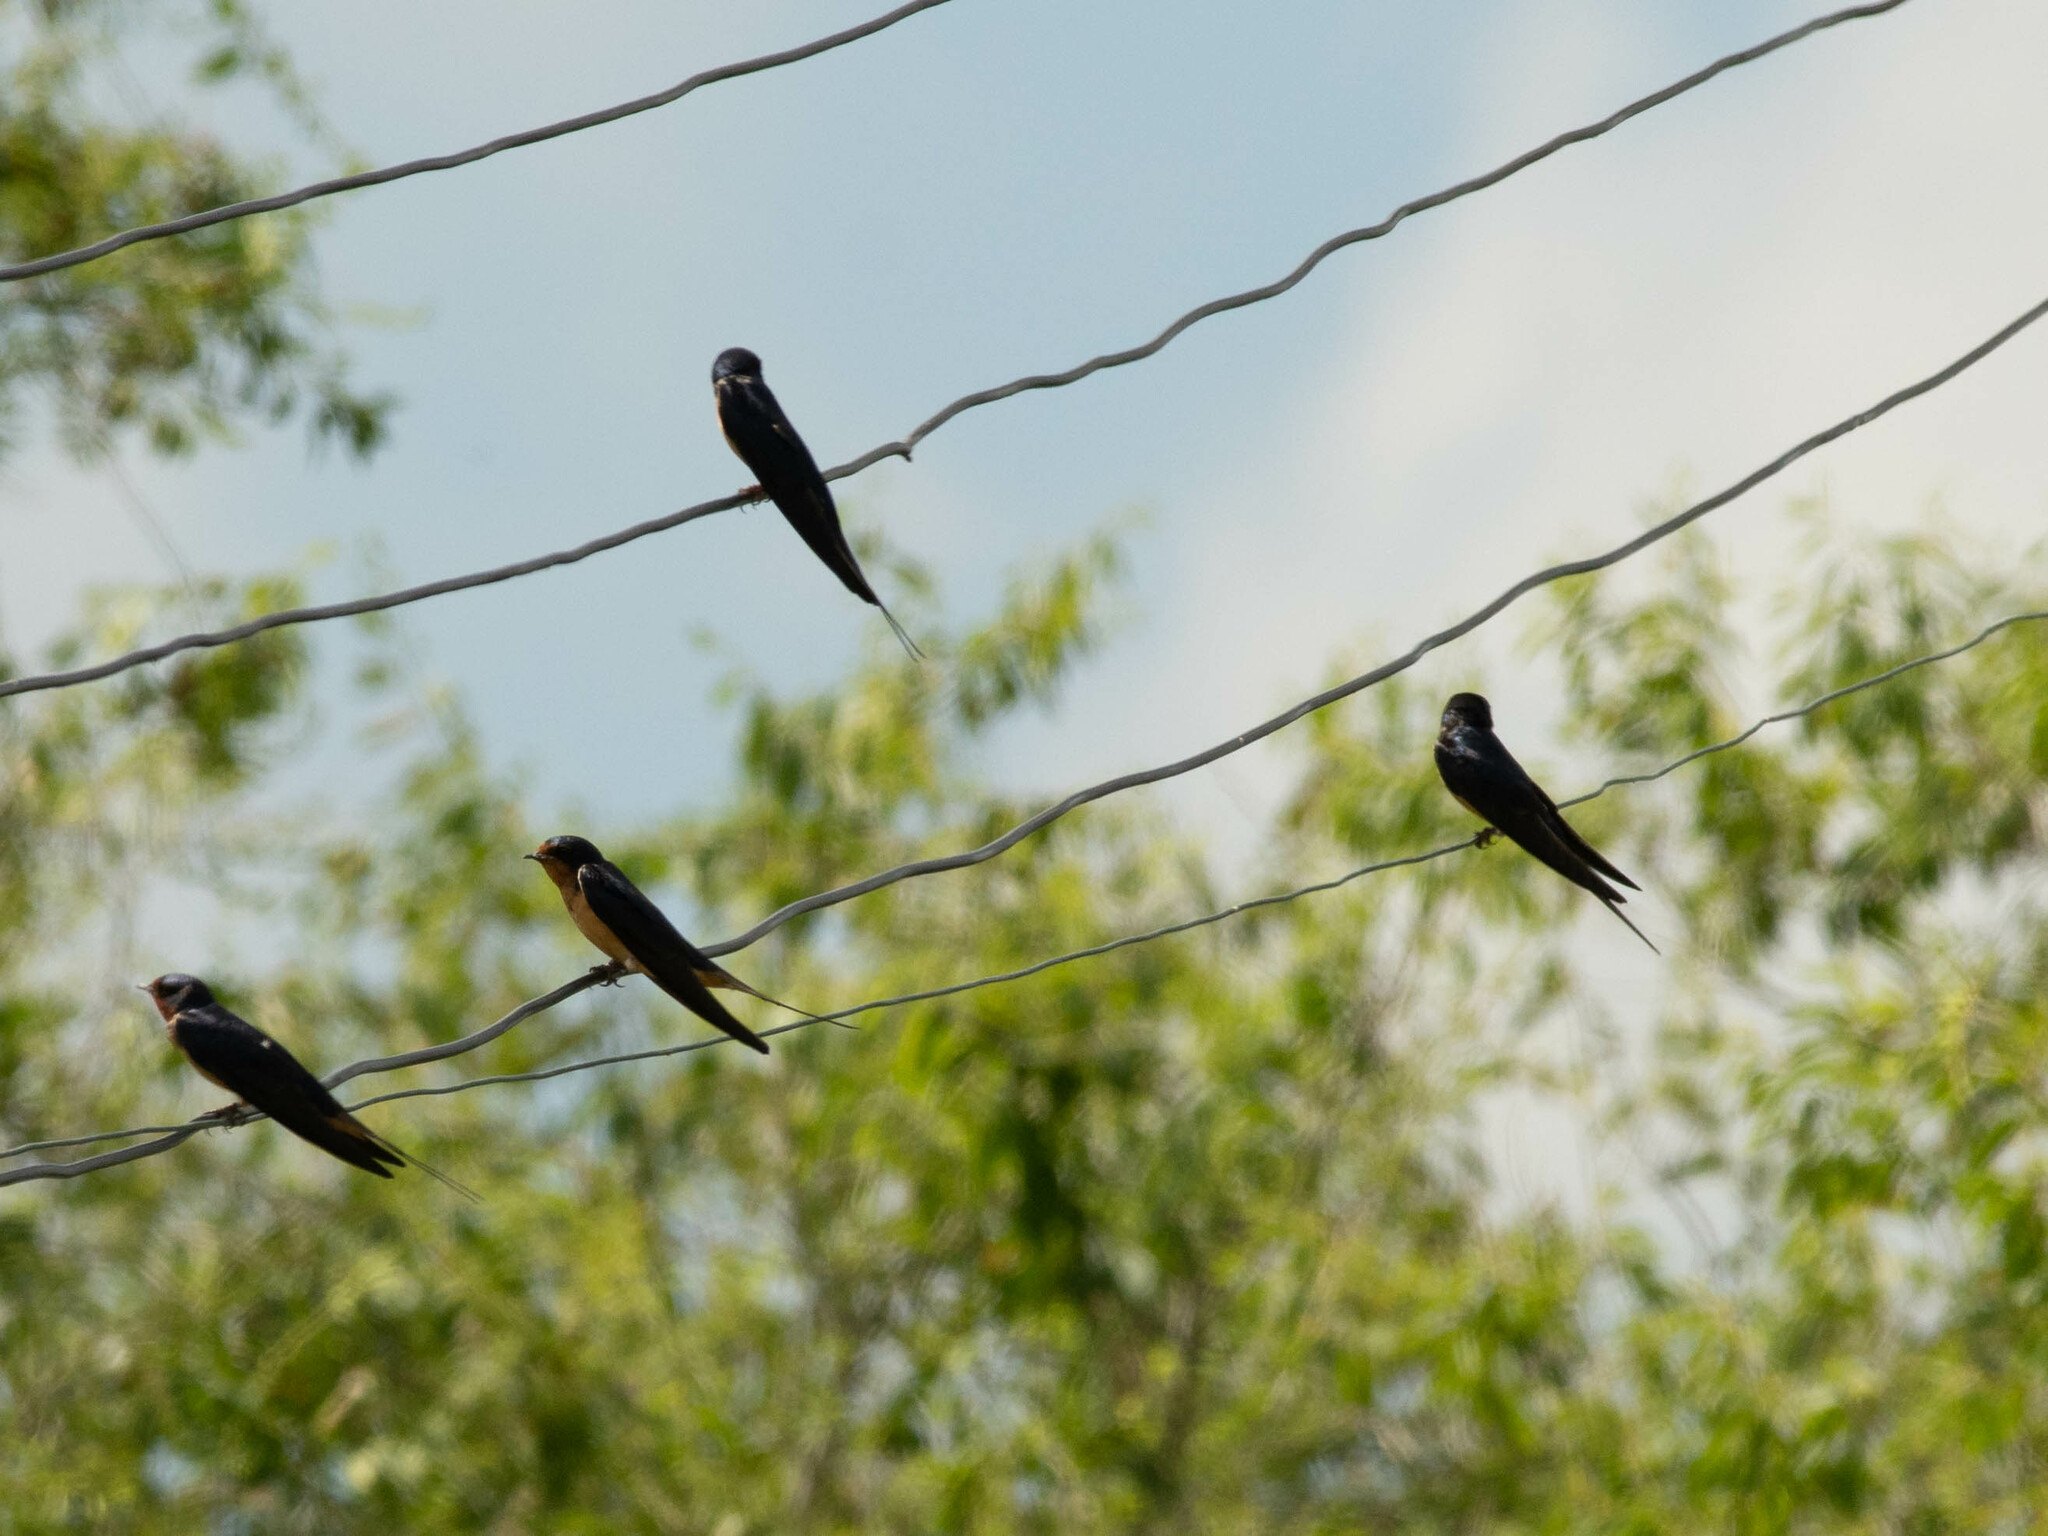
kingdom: Animalia
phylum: Chordata
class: Aves
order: Passeriformes
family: Hirundinidae
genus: Hirundo
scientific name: Hirundo rustica
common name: Barn swallow
